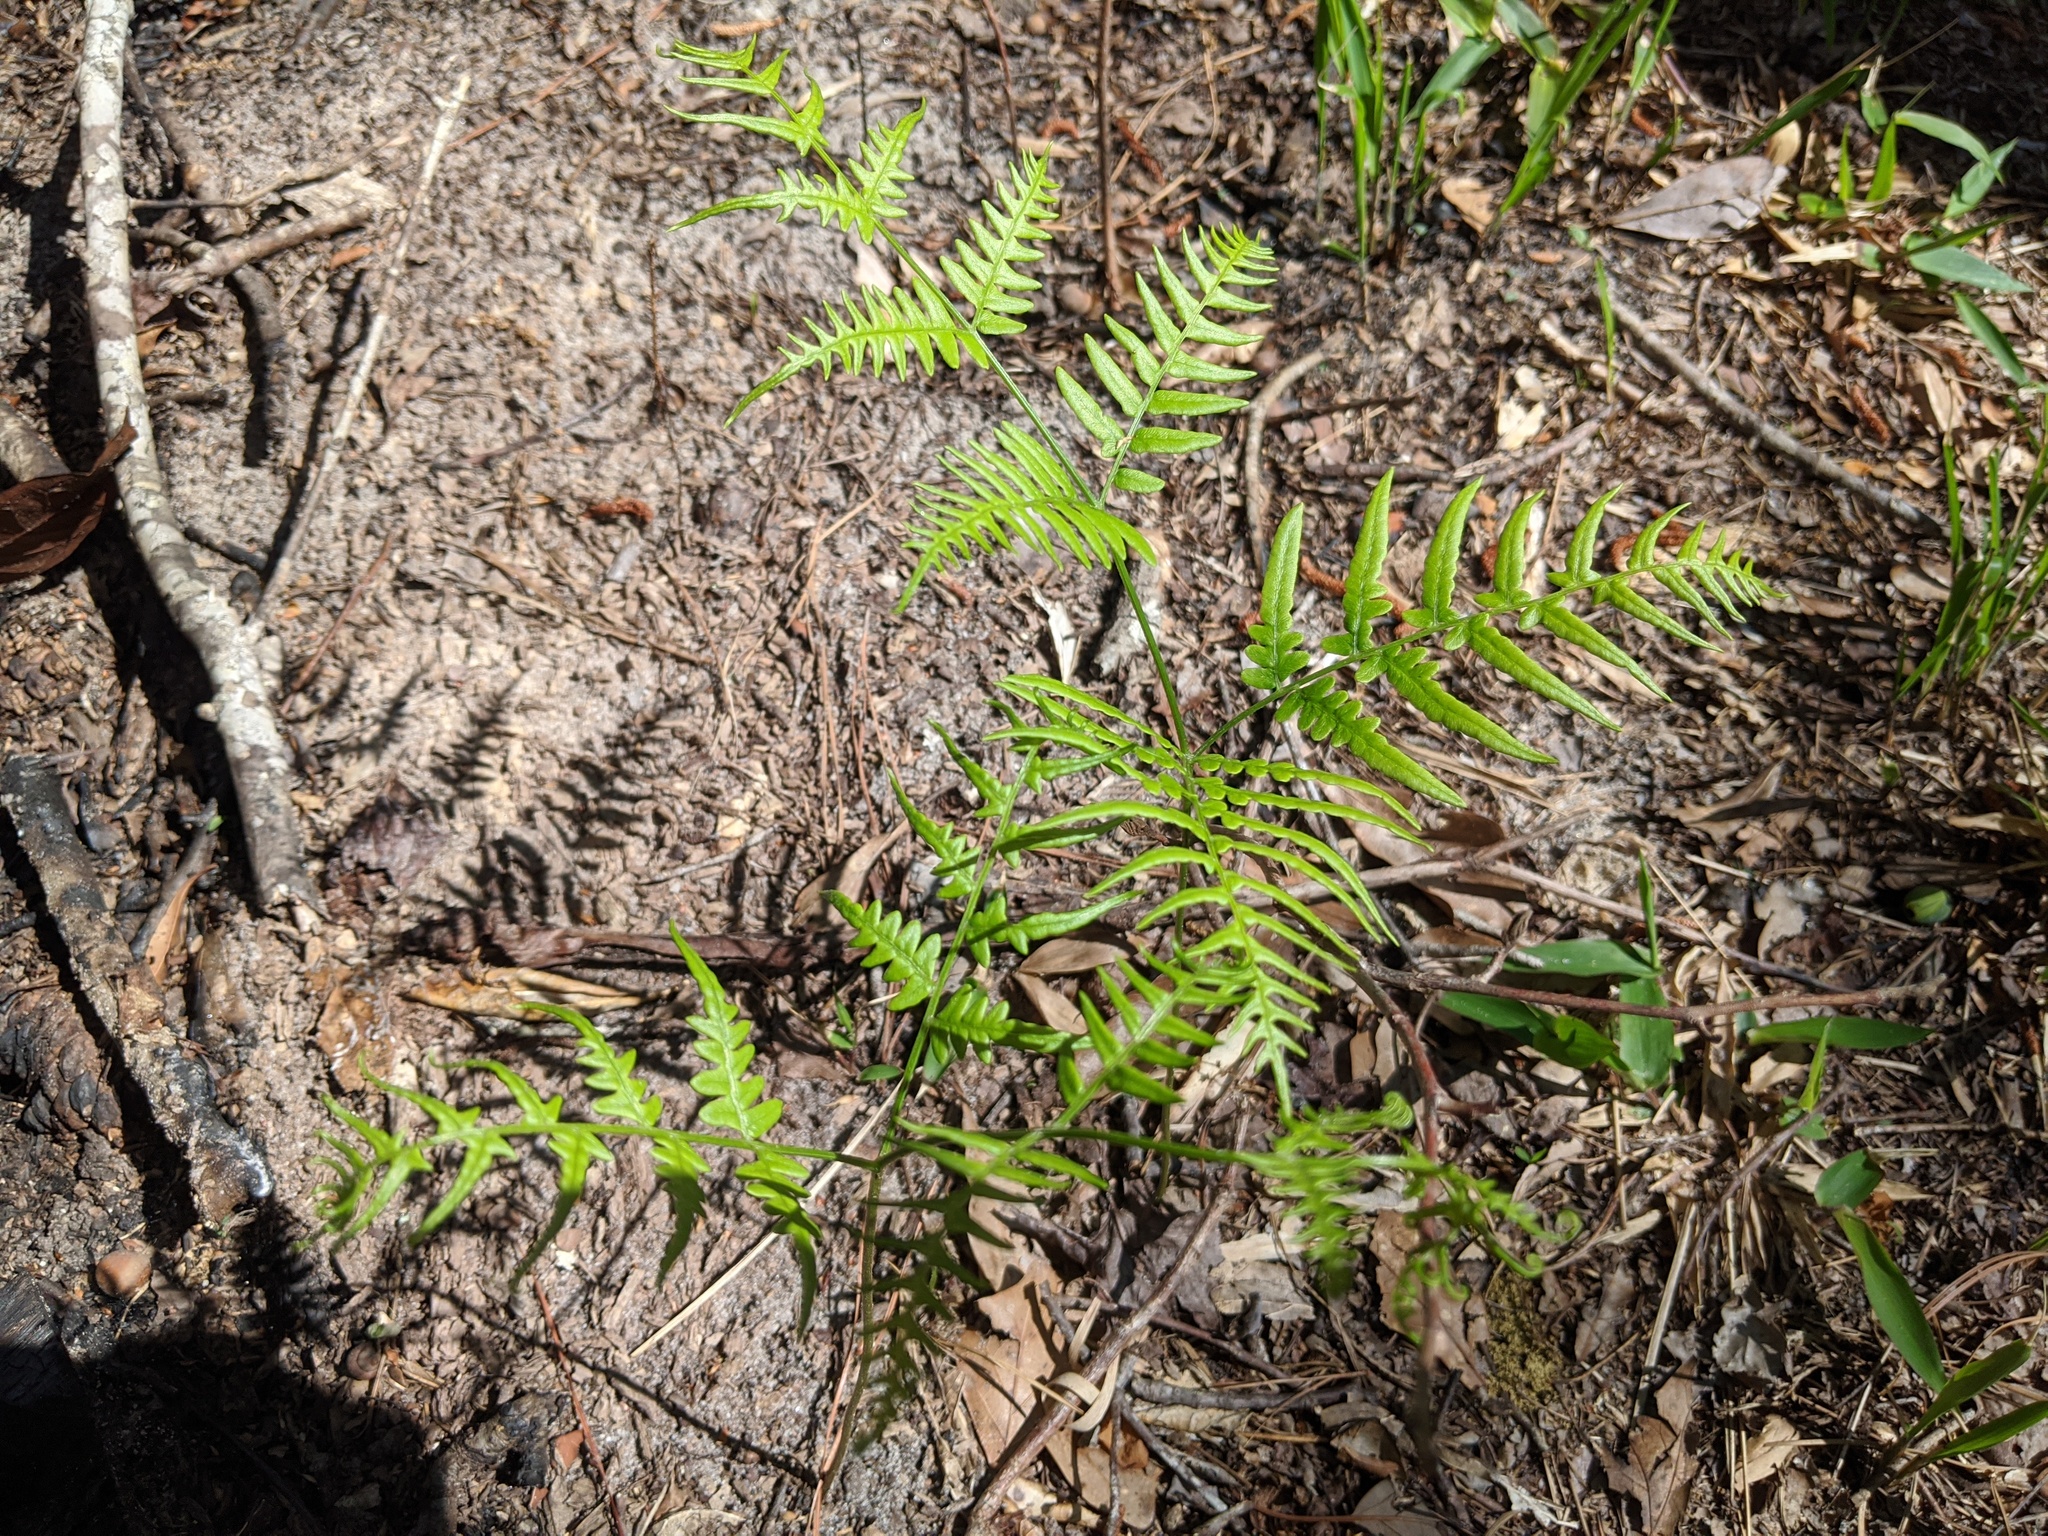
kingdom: Plantae
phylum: Tracheophyta
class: Polypodiopsida
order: Polypodiales
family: Dennstaedtiaceae
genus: Pteridium
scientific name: Pteridium aquilinum
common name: Bracken
